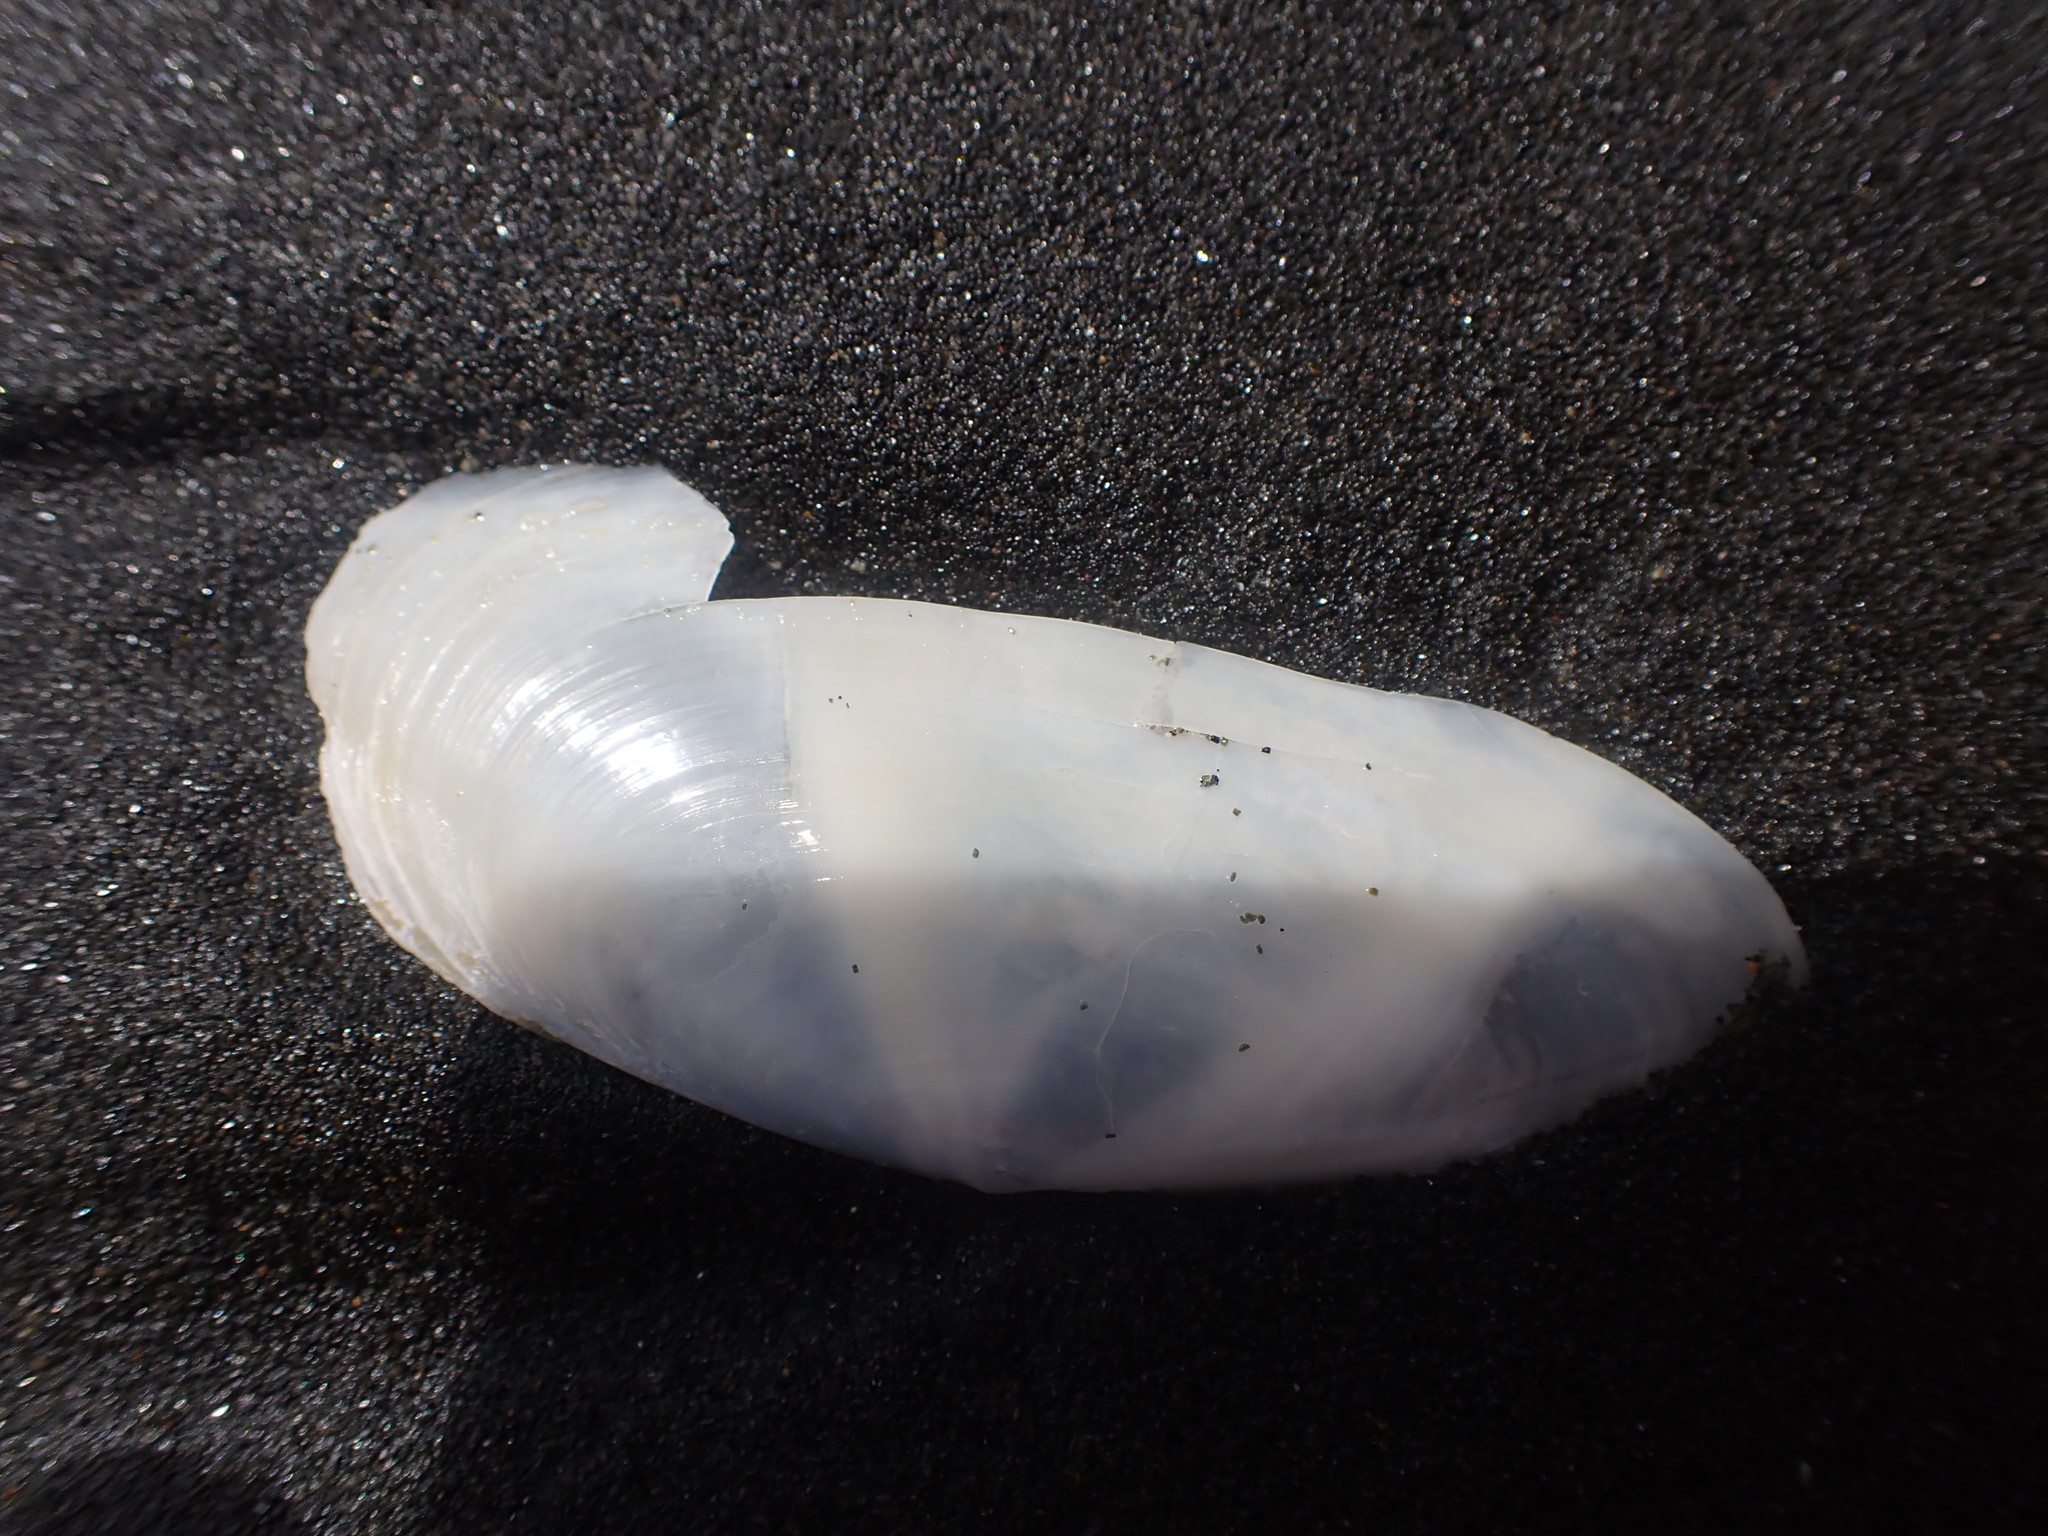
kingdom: Animalia
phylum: Mollusca
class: Bivalvia
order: Venerida
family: Mactridae
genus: Resania
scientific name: Resania lanceolata
